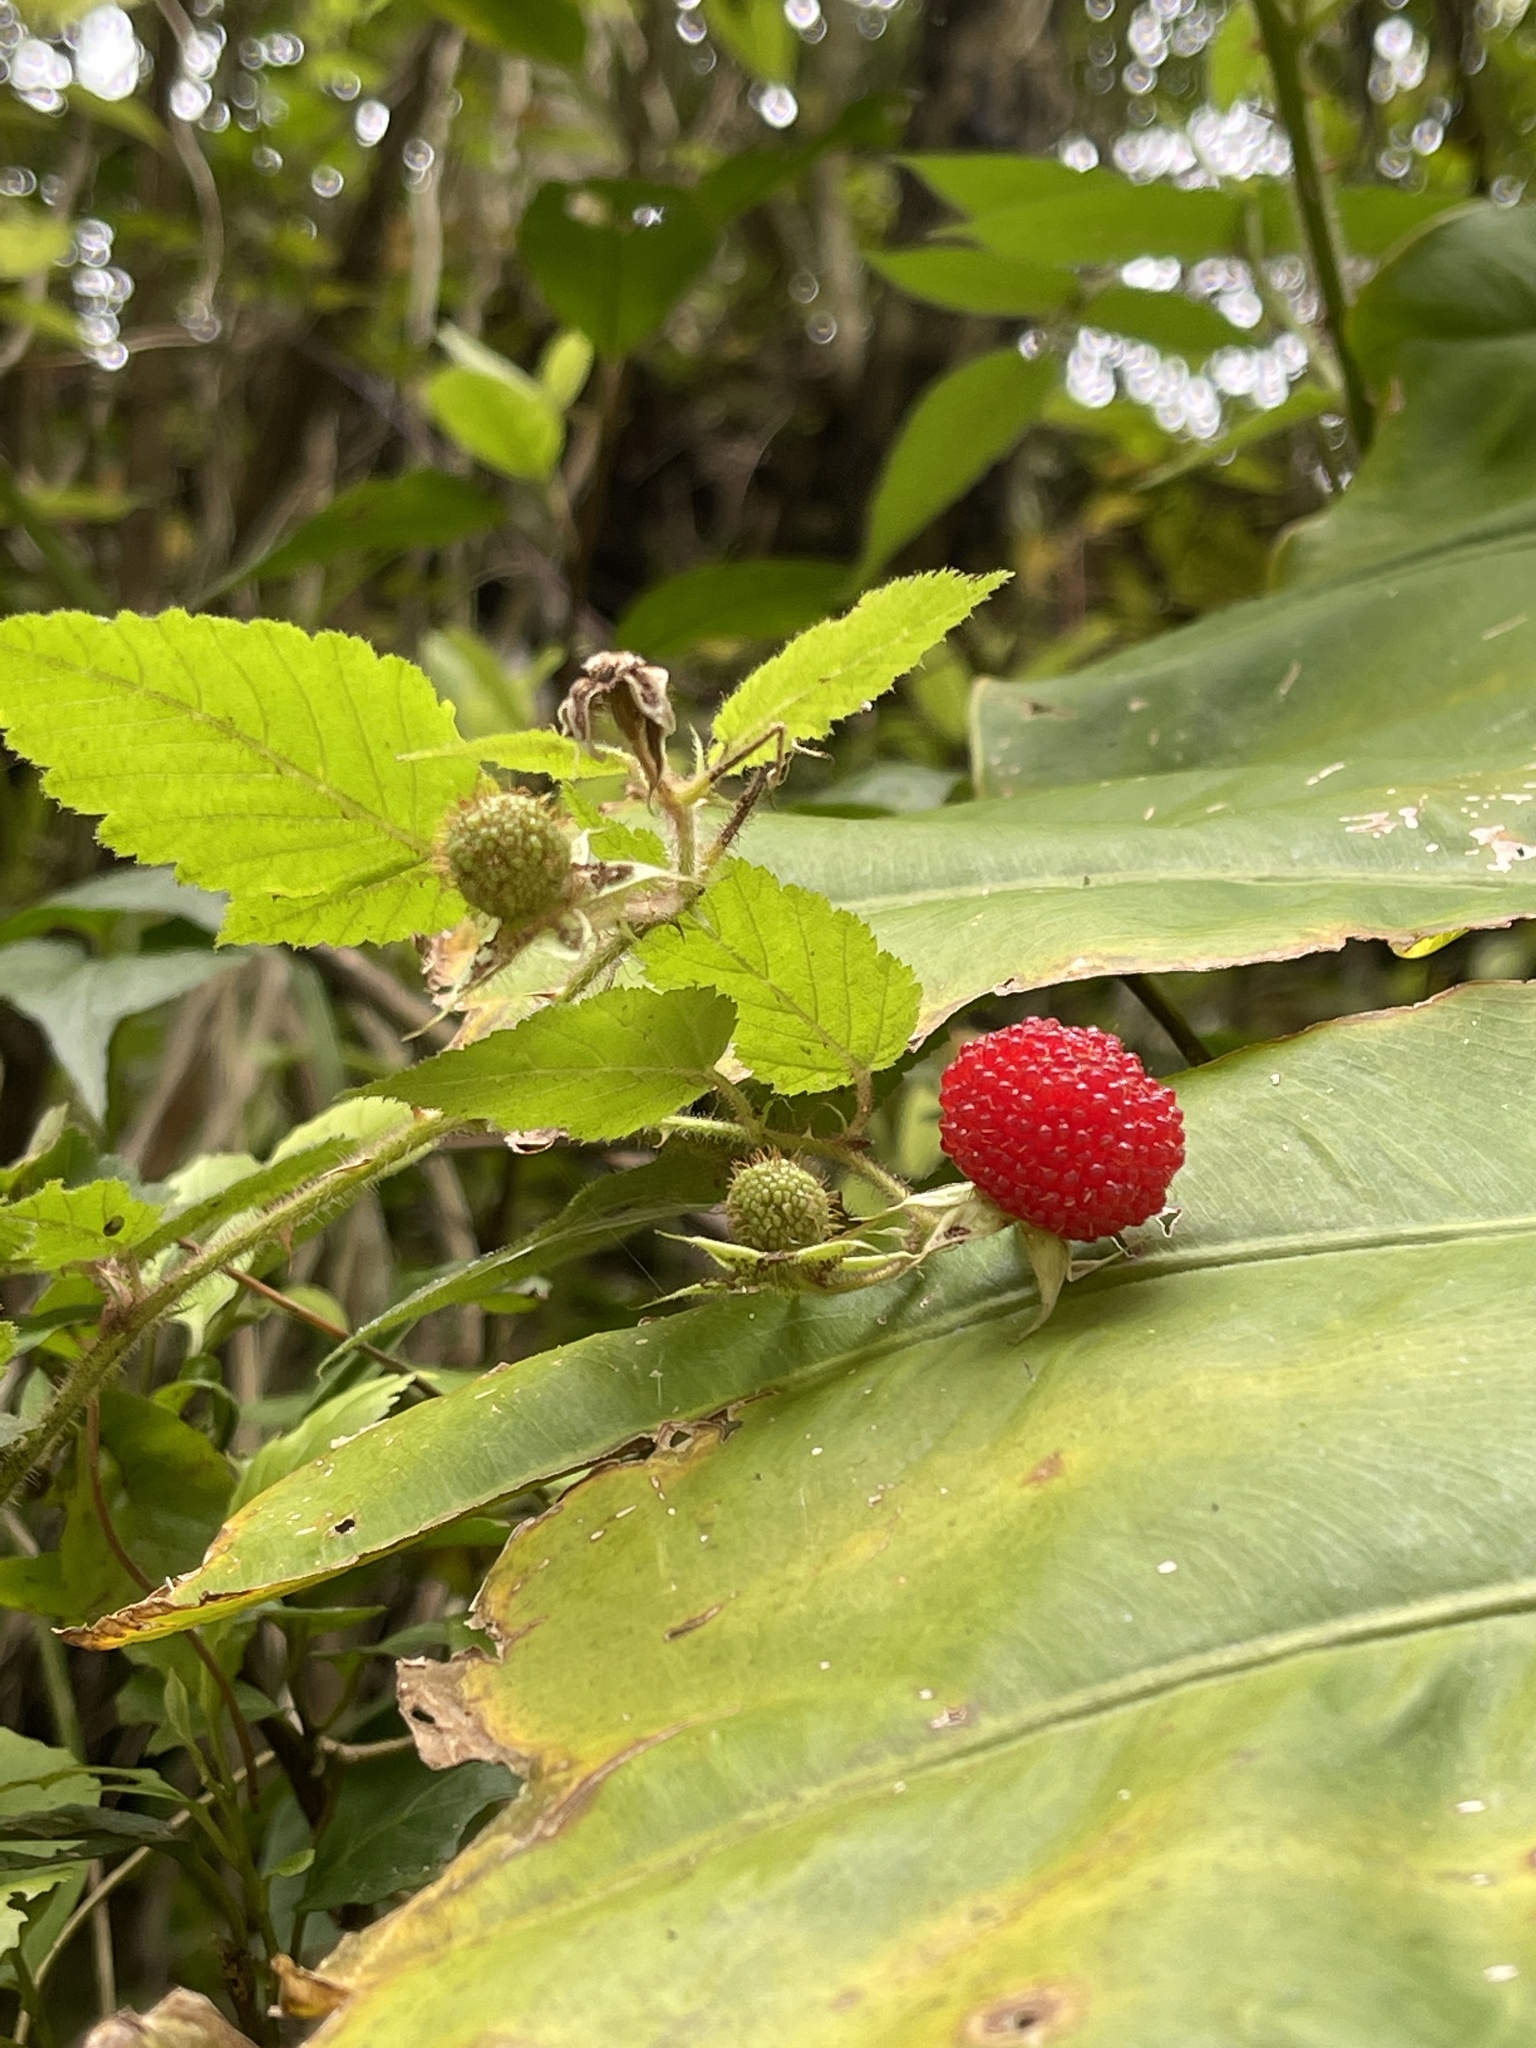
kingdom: Plantae
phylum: Tracheophyta
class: Magnoliopsida
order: Rosales
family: Rosaceae
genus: Rubus
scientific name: Rubus croceacanthus
